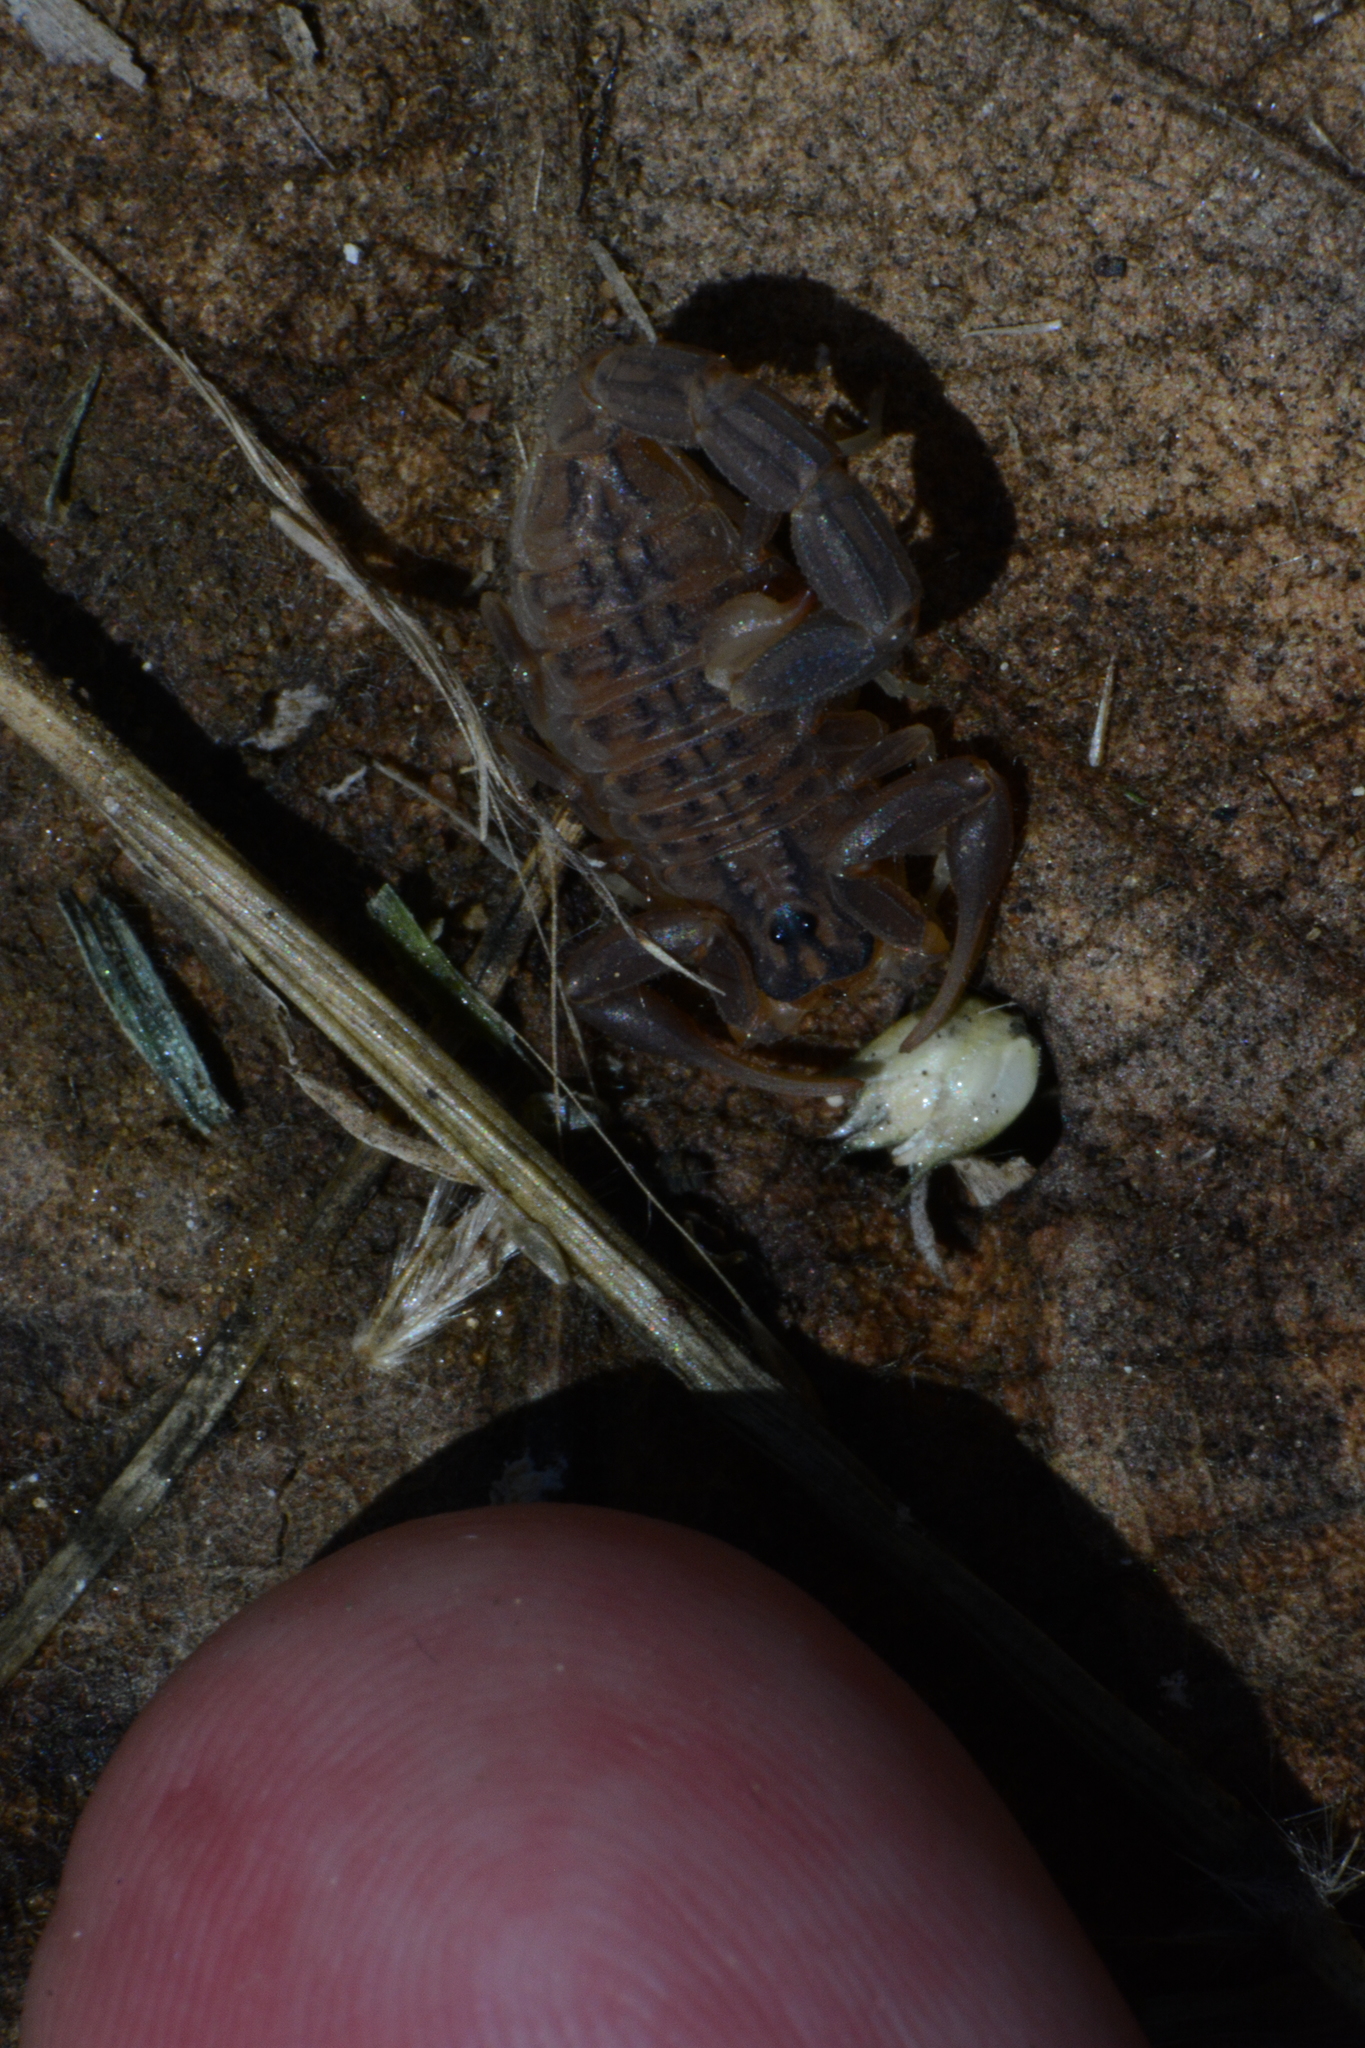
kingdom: Animalia
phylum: Arthropoda
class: Arachnida
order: Scorpiones
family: Buthidae
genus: Hottentotta
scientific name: Hottentotta trilineatus
